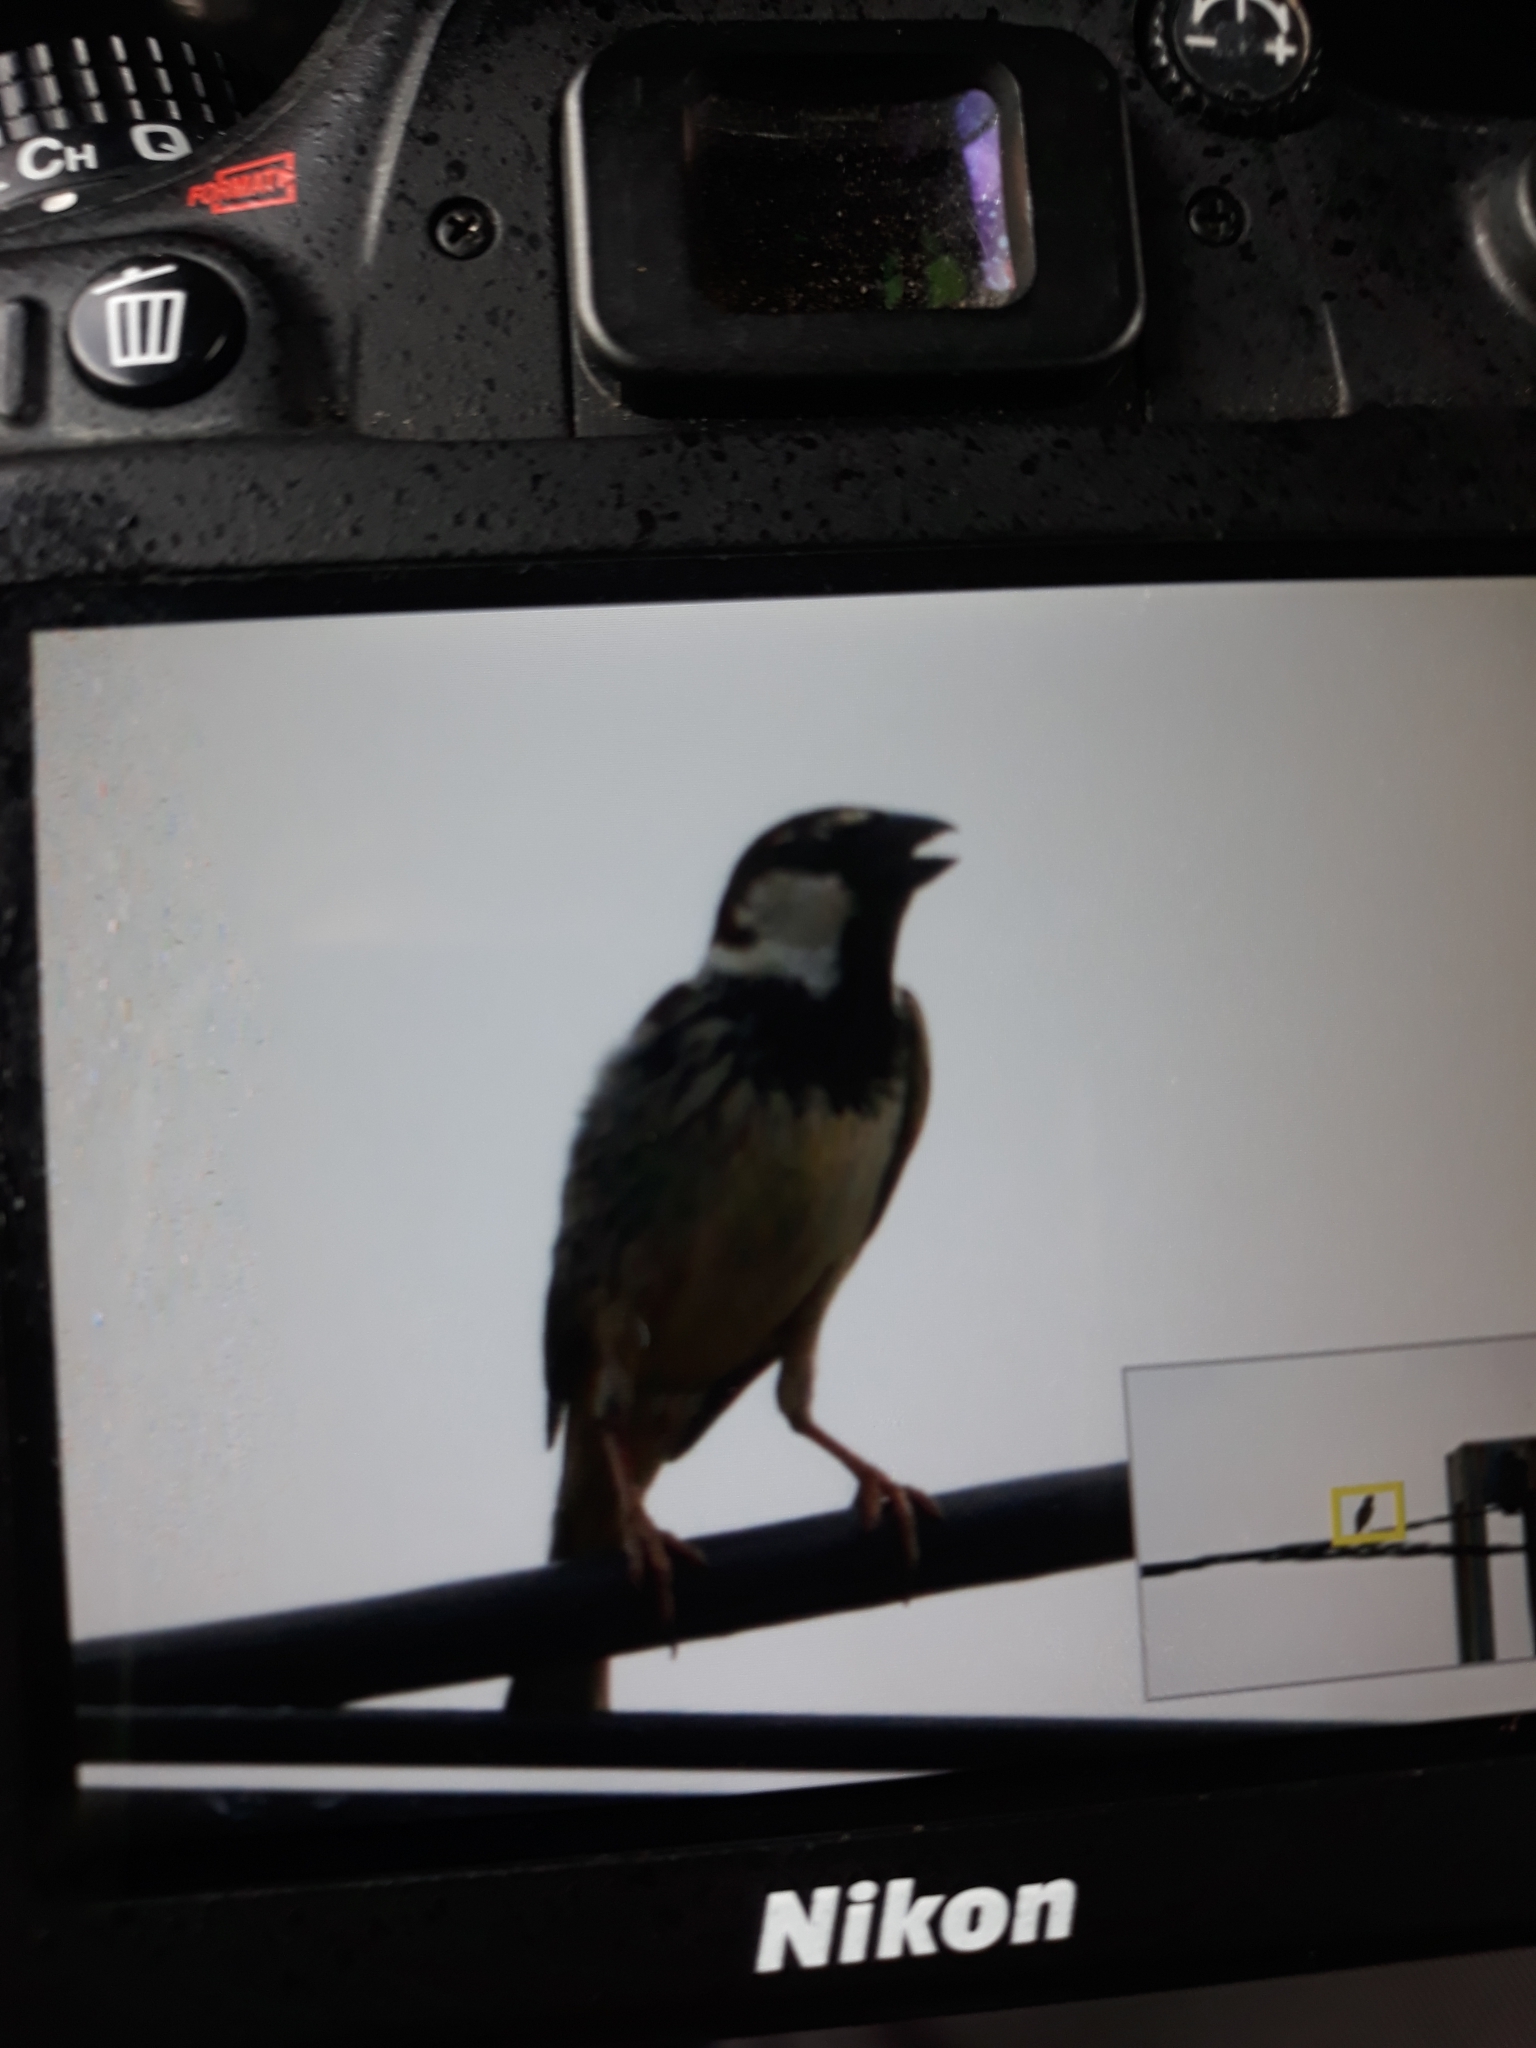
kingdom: Animalia
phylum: Chordata
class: Aves
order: Passeriformes
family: Passeridae
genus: Passer
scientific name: Passer hispaniolensis
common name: Spanish sparrow
